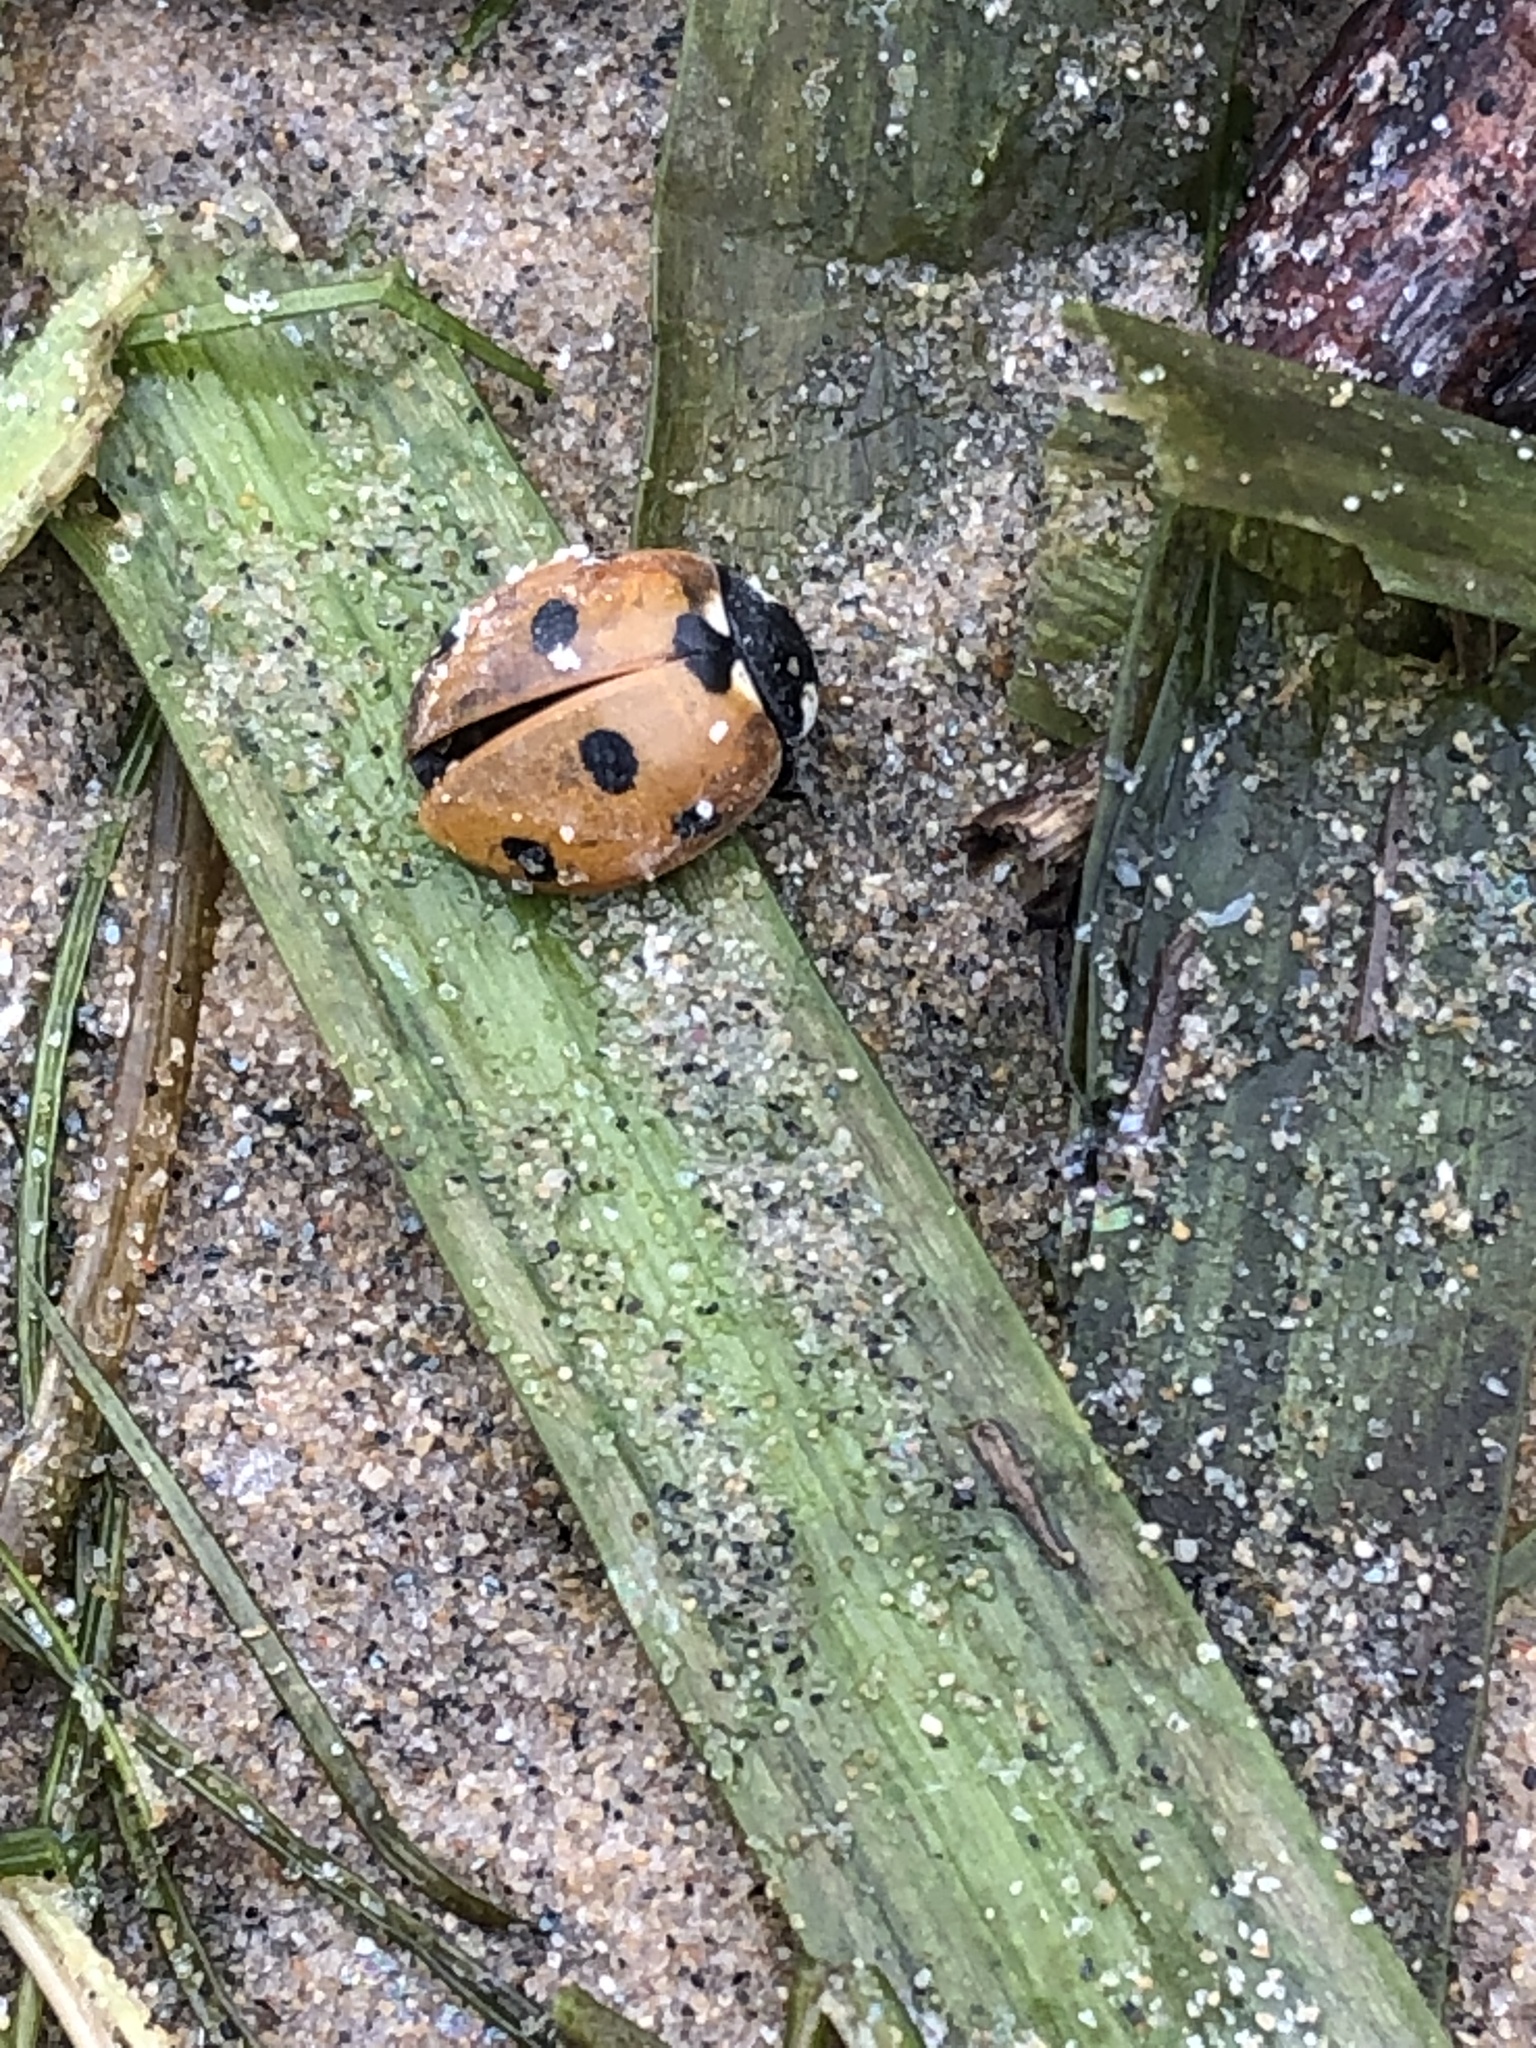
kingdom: Animalia
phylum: Arthropoda
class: Insecta
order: Coleoptera
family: Coccinellidae
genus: Coccinella
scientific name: Coccinella septempunctata
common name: Sevenspotted lady beetle
